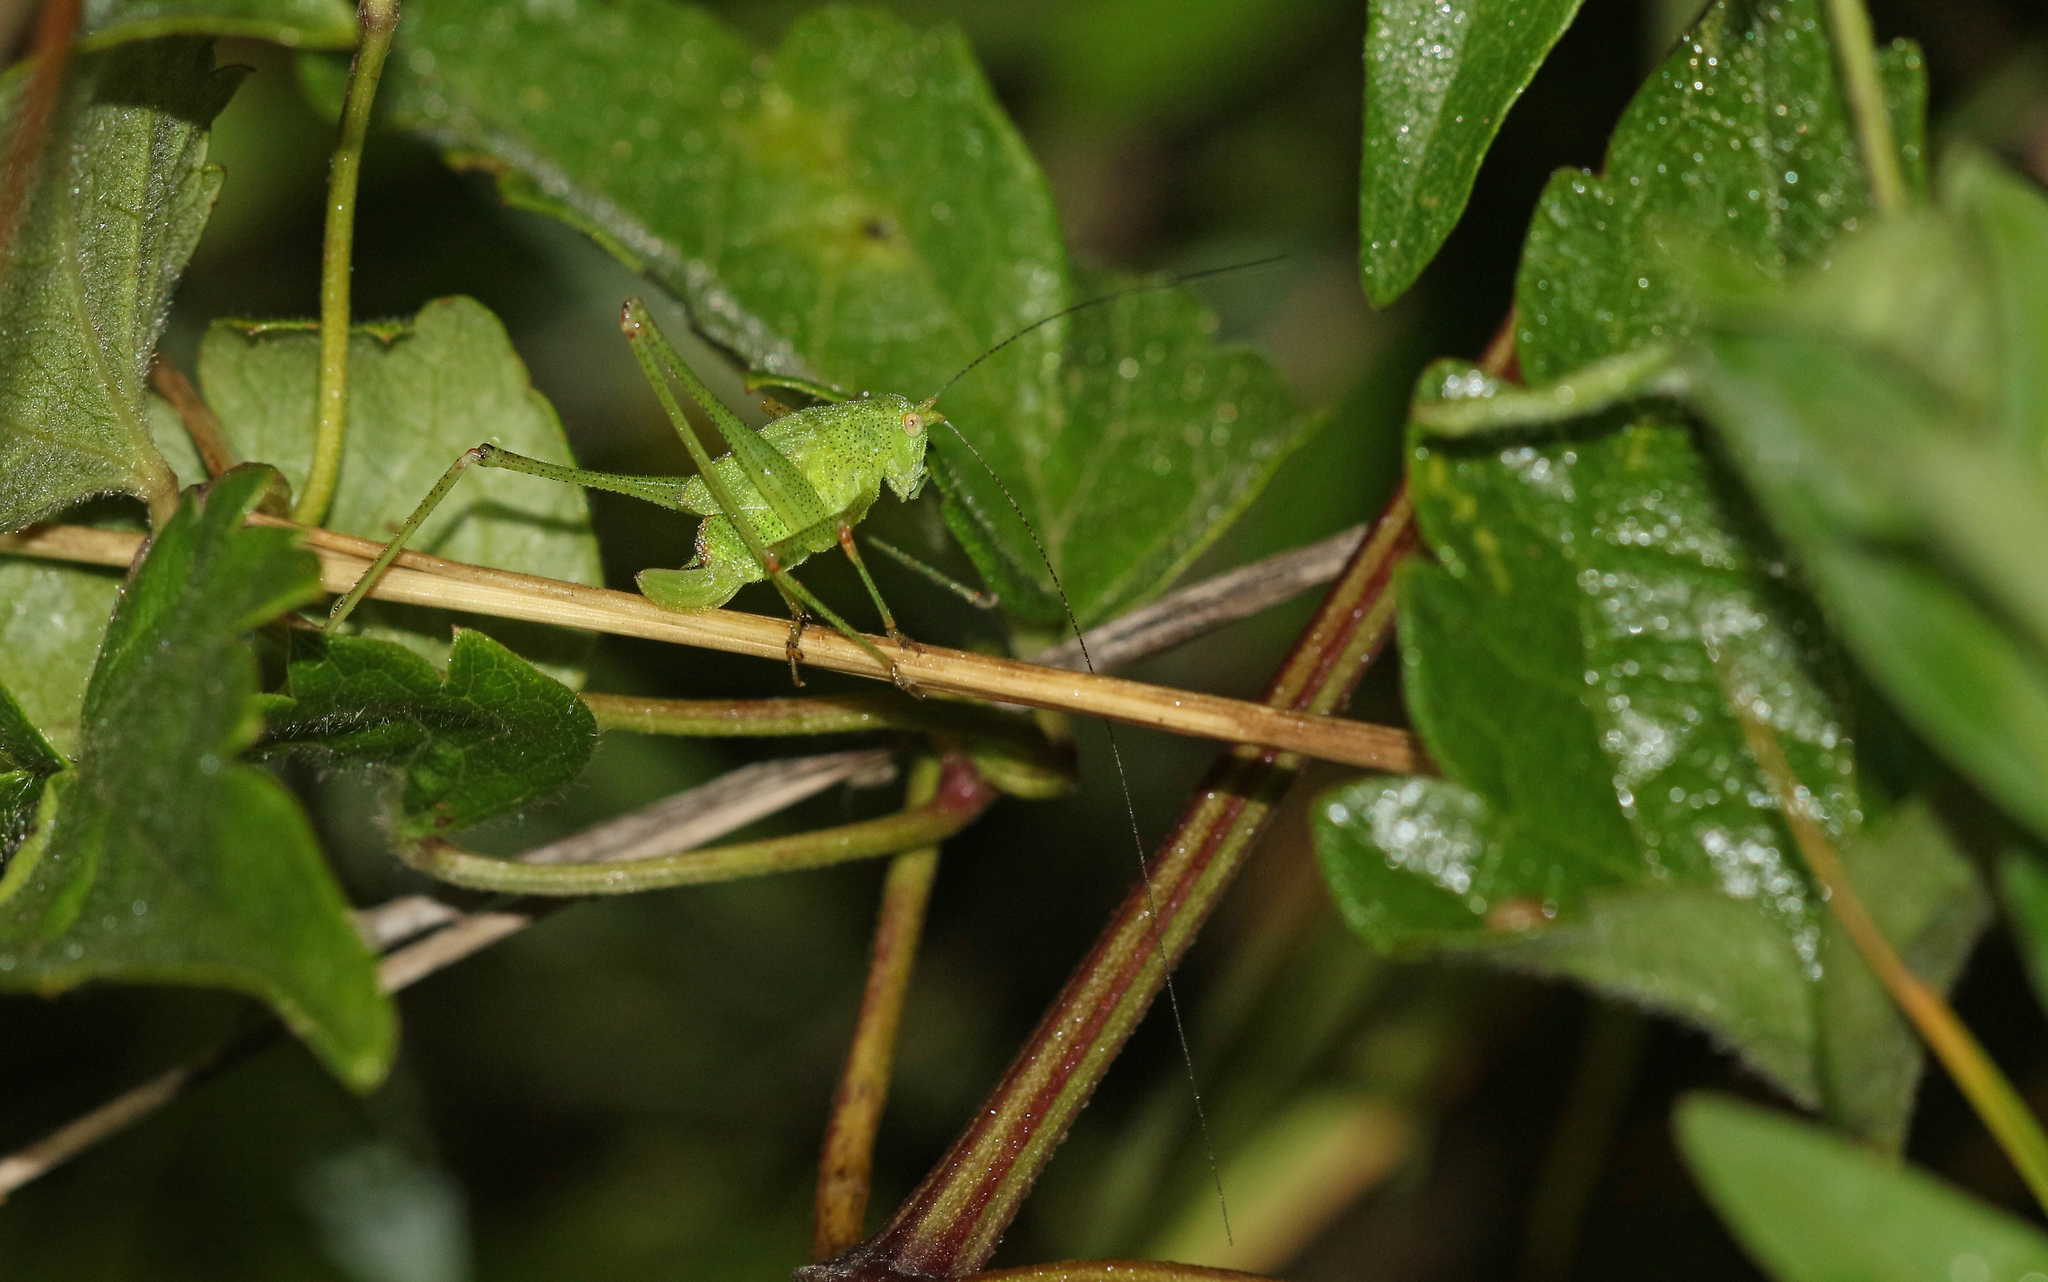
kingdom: Animalia
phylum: Arthropoda
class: Insecta
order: Orthoptera
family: Tettigoniidae
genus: Phaneroptera
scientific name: Phaneroptera nana
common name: Southern sickle bush-cricket
